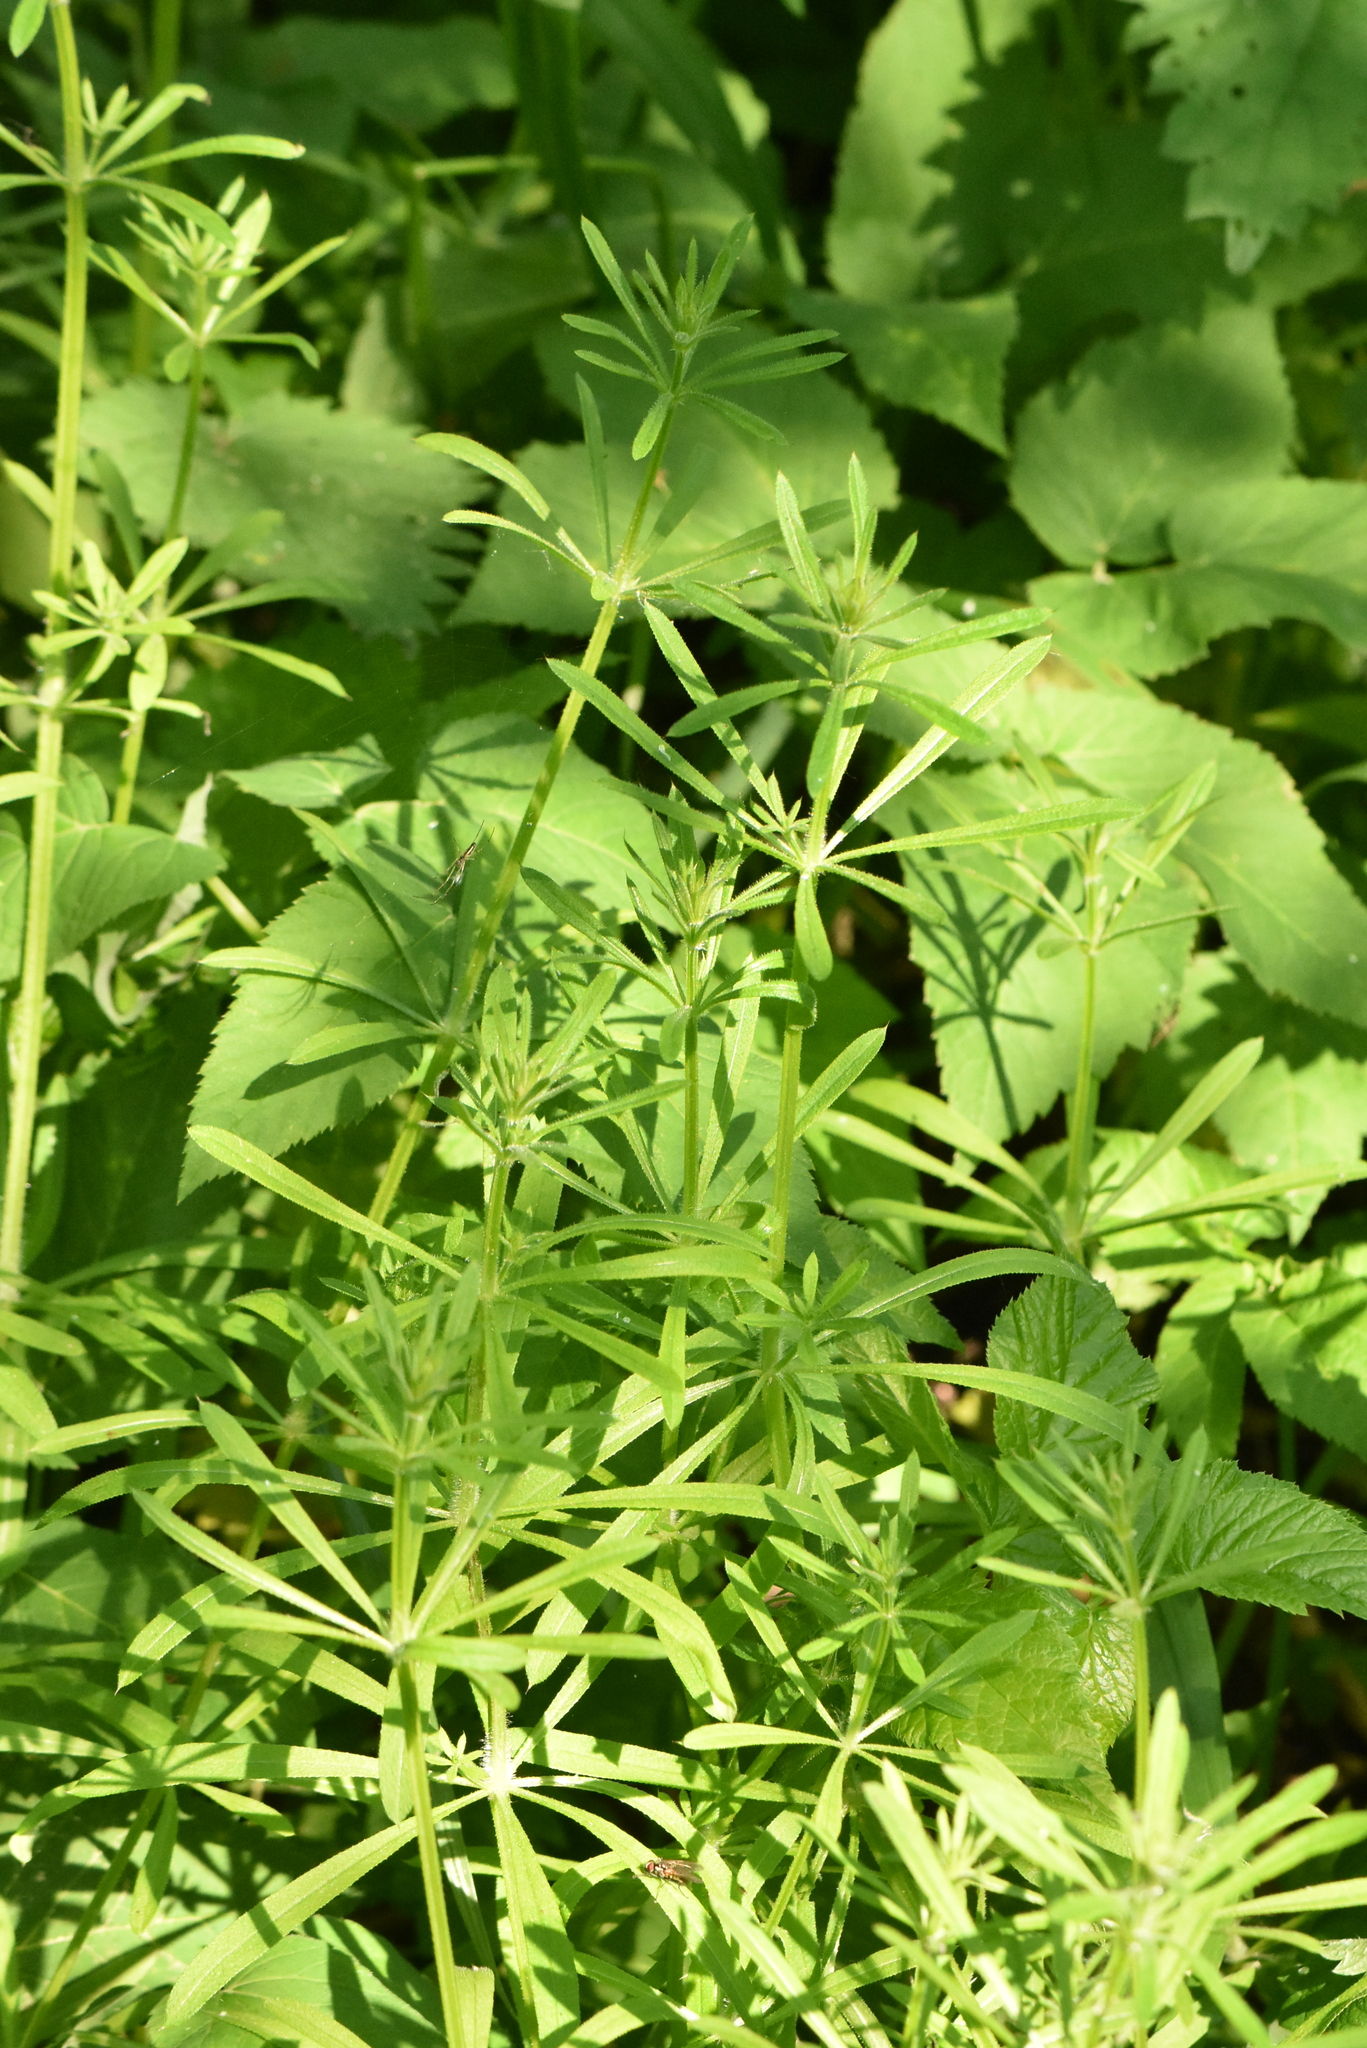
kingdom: Plantae
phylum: Tracheophyta
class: Magnoliopsida
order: Gentianales
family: Rubiaceae
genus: Galium
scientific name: Galium aparine
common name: Cleavers
